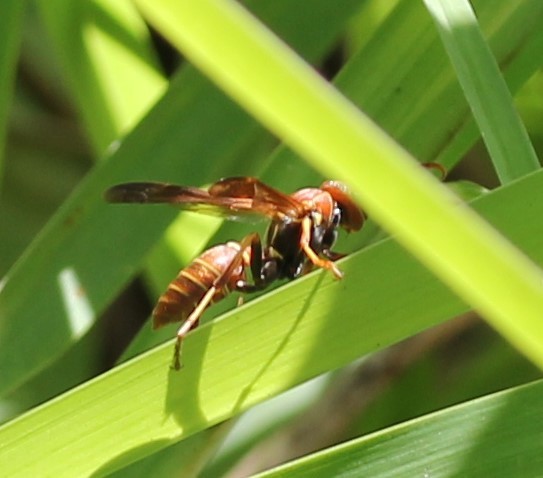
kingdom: Animalia
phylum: Arthropoda
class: Insecta
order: Hymenoptera
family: Eumenidae
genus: Polistes
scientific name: Polistes dorsalis
